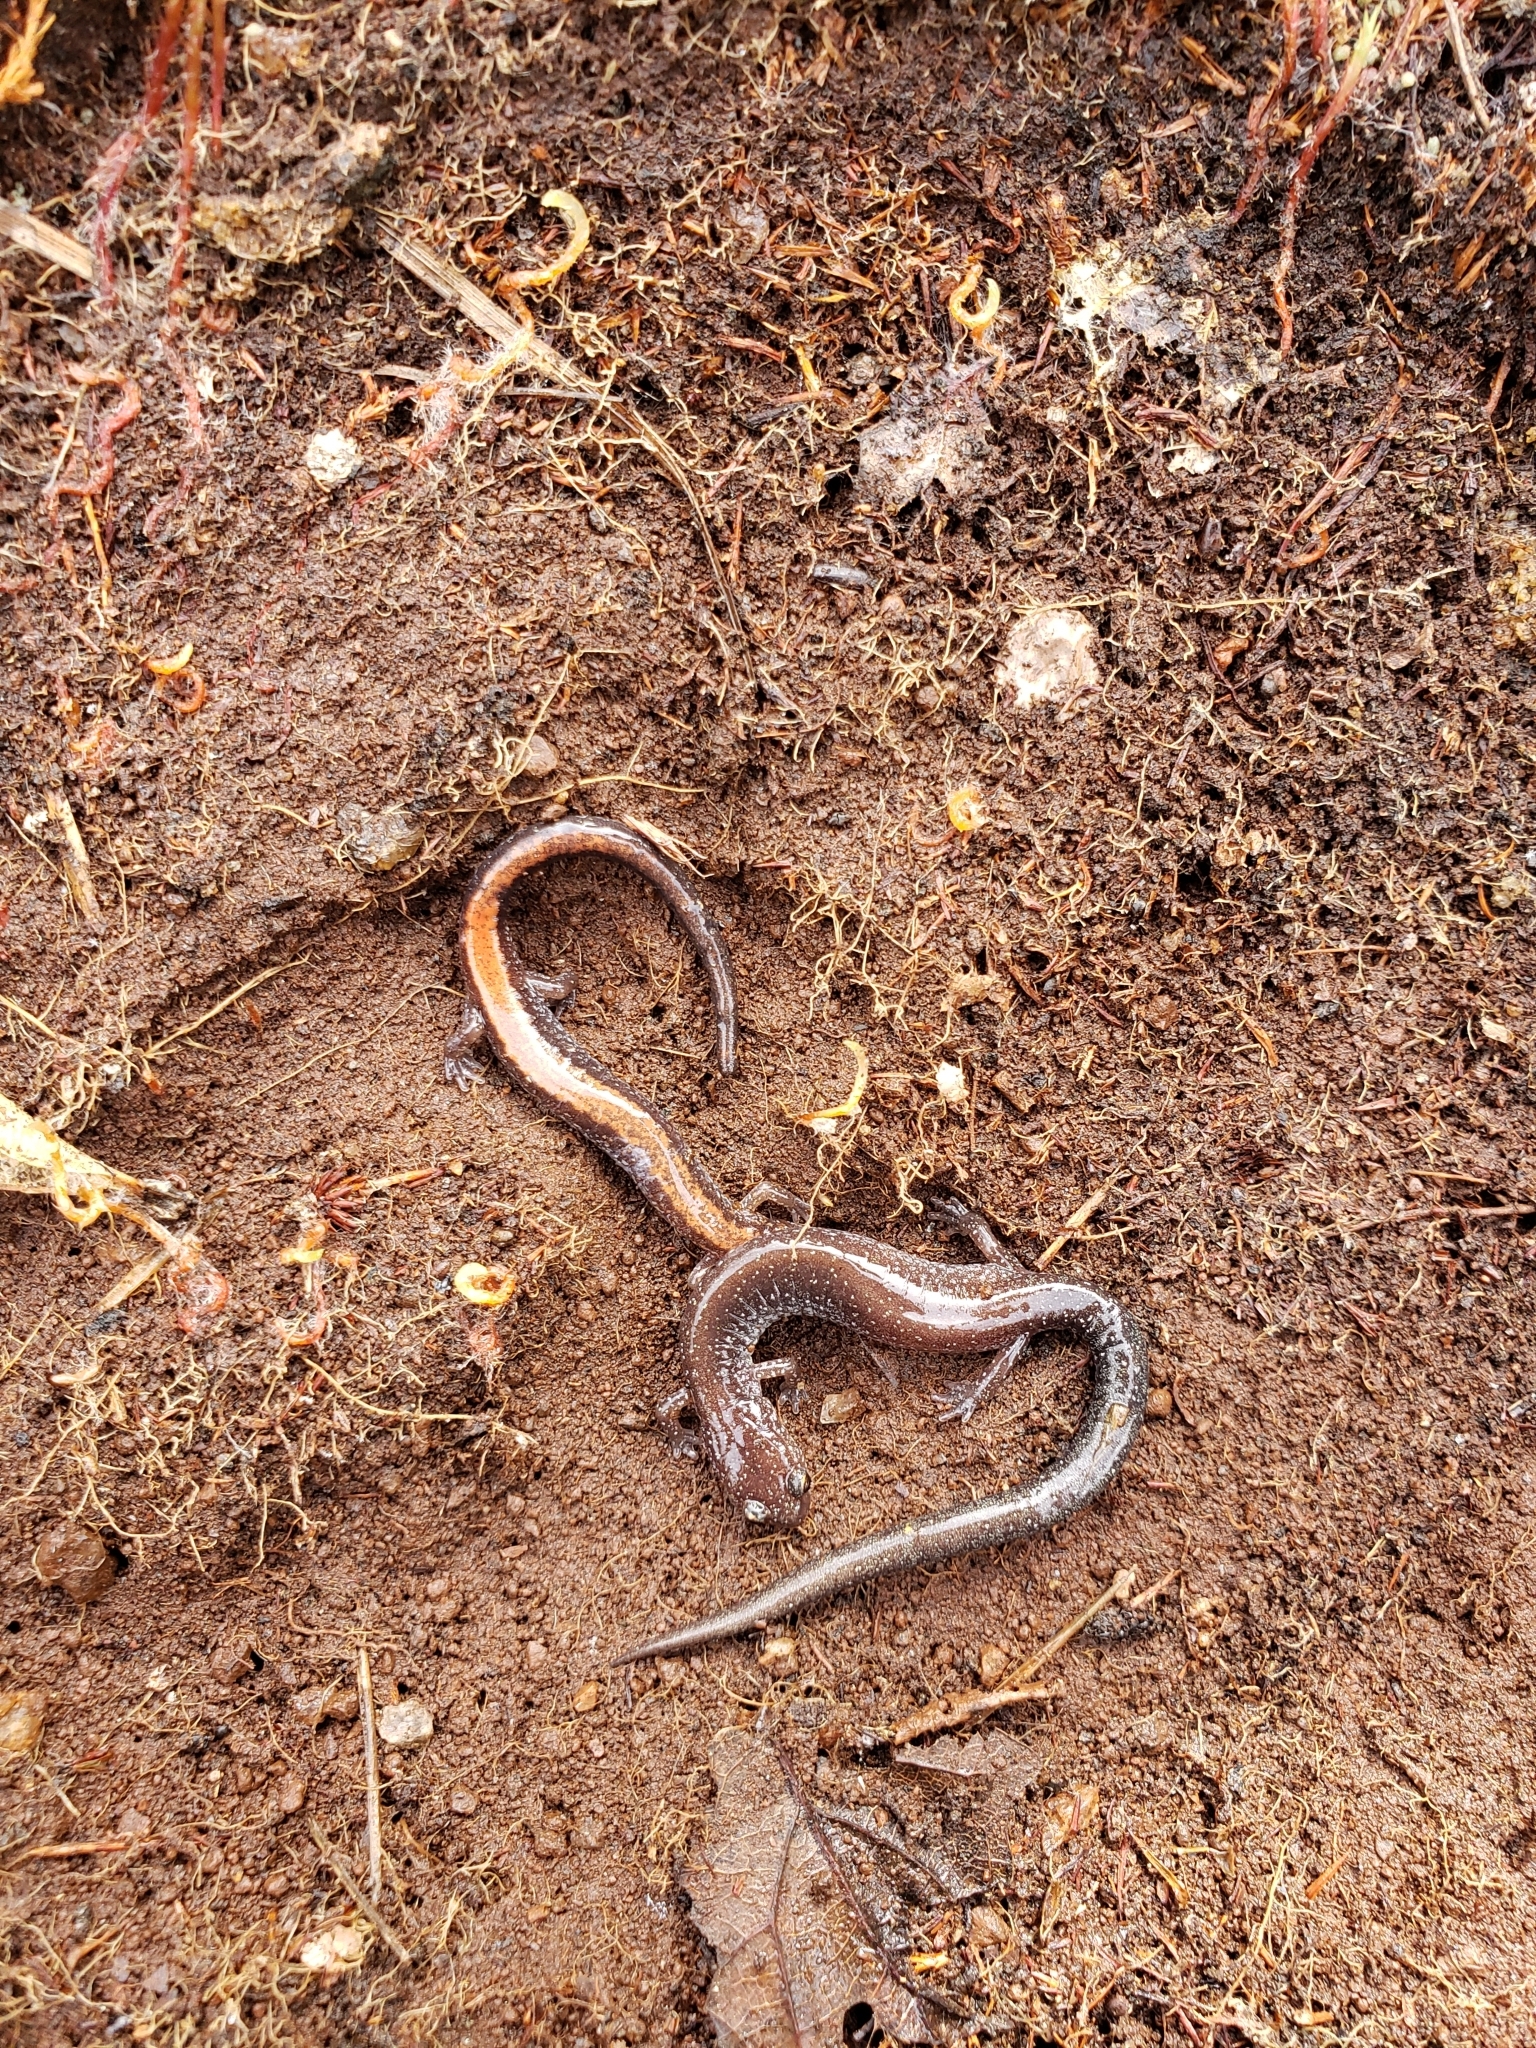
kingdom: Animalia
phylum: Chordata
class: Amphibia
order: Caudata
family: Plethodontidae
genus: Plethodon
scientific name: Plethodon cinereus
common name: Redback salamander
